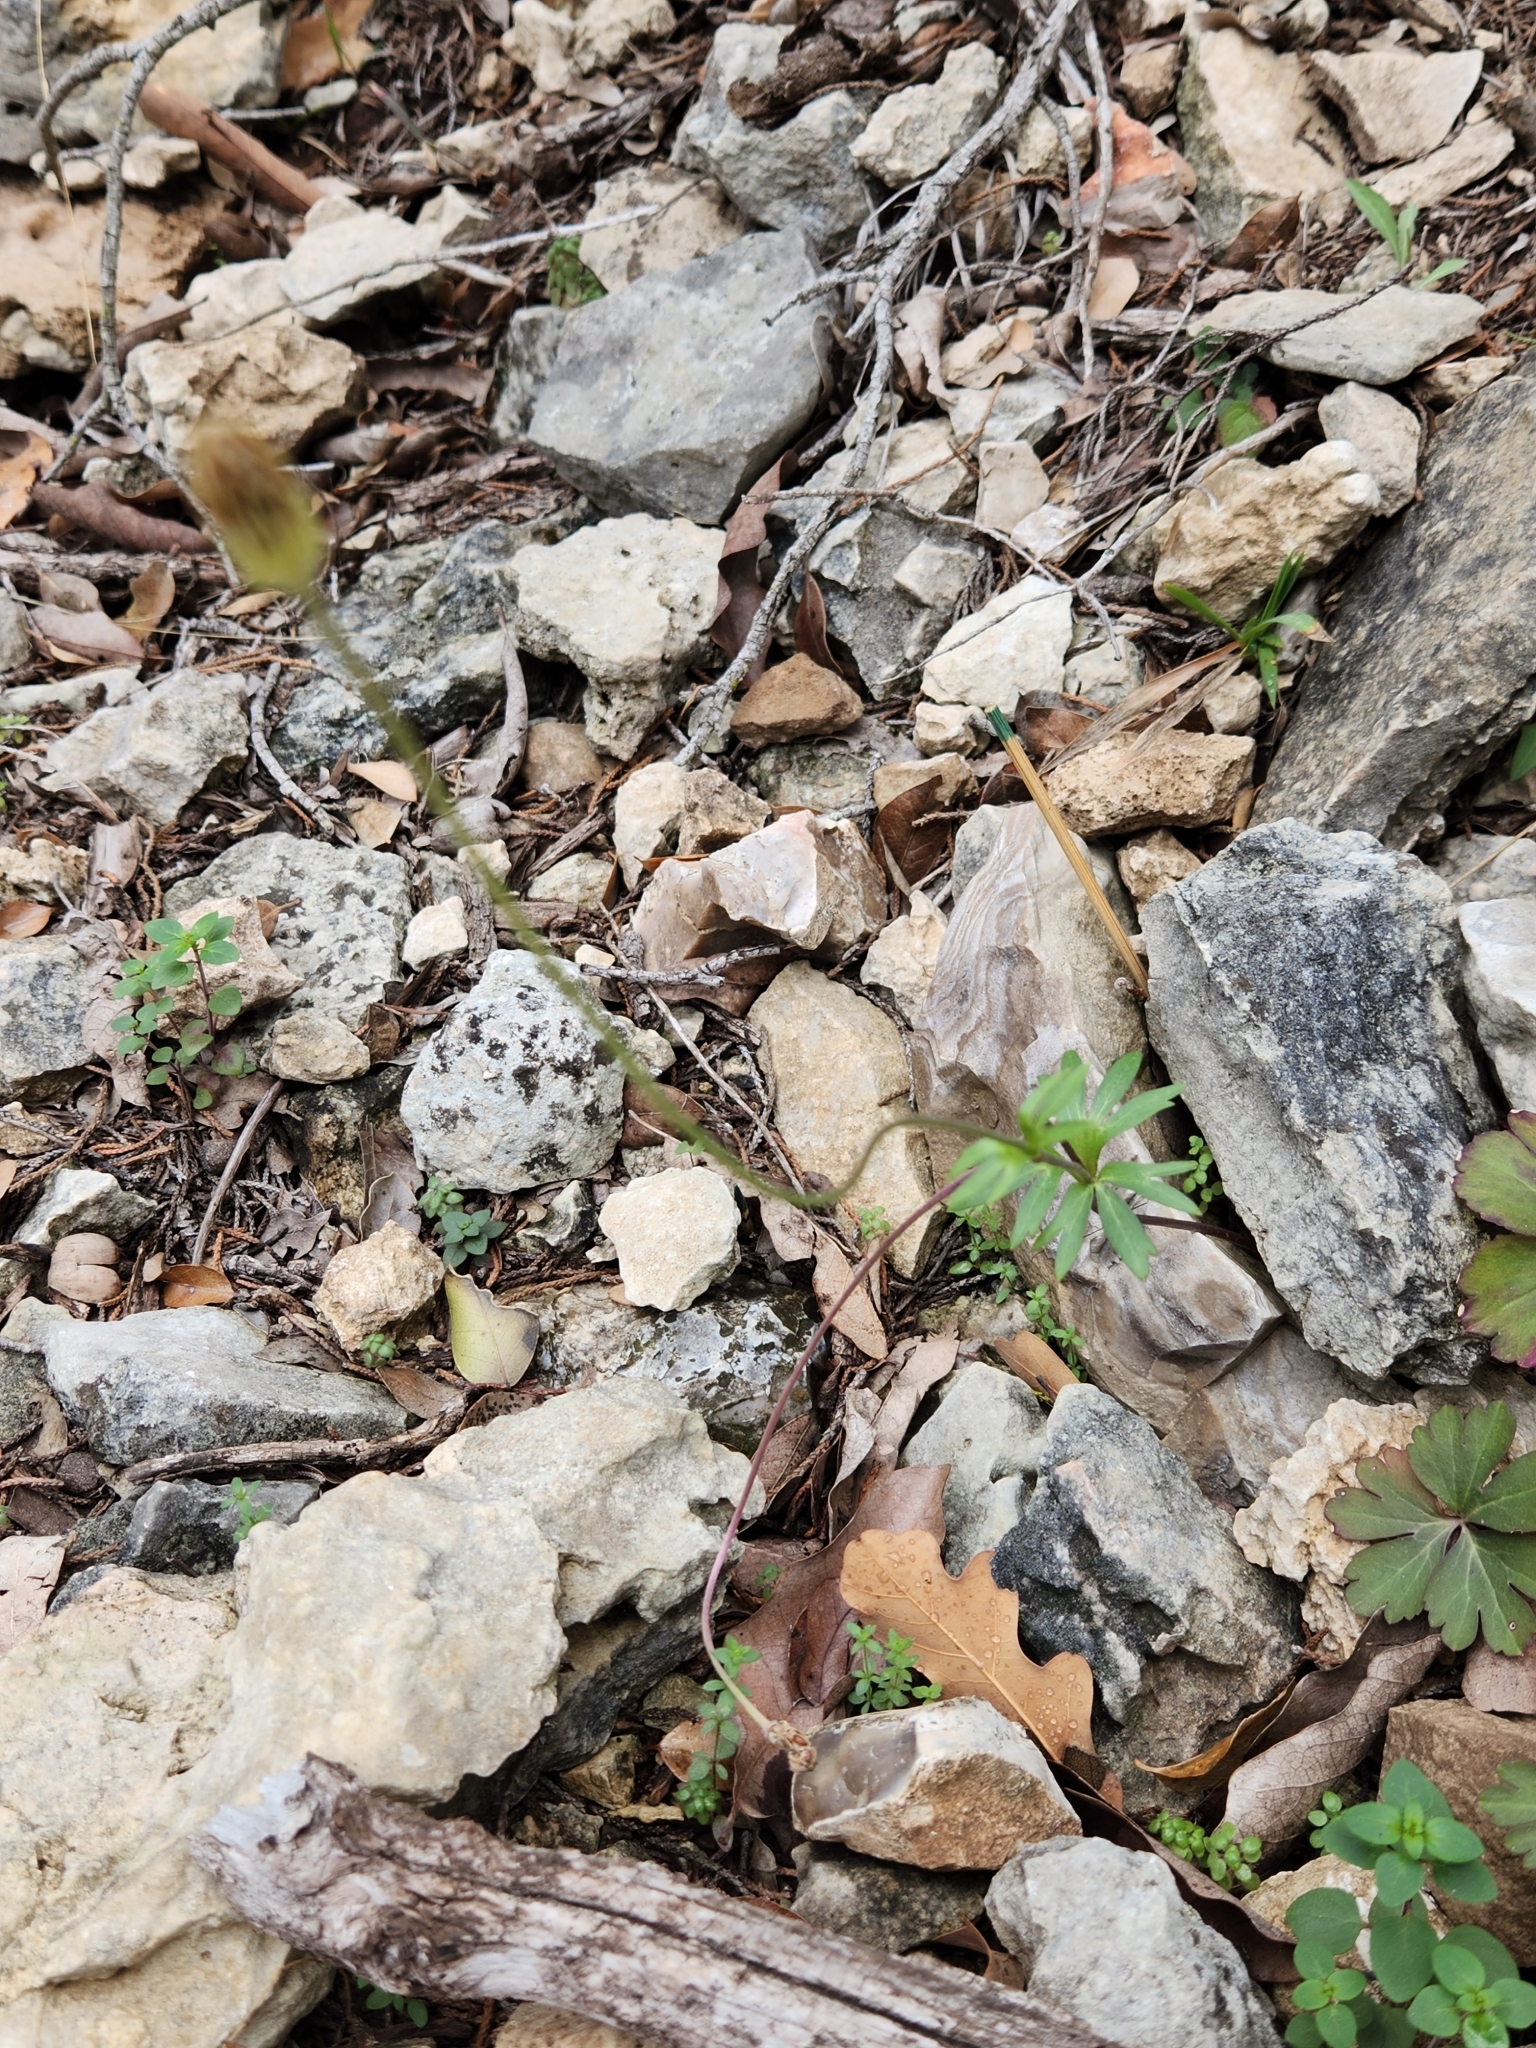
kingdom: Plantae
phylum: Tracheophyta
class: Magnoliopsida
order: Ranunculales
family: Ranunculaceae
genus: Anemone
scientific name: Anemone edwardsiana
